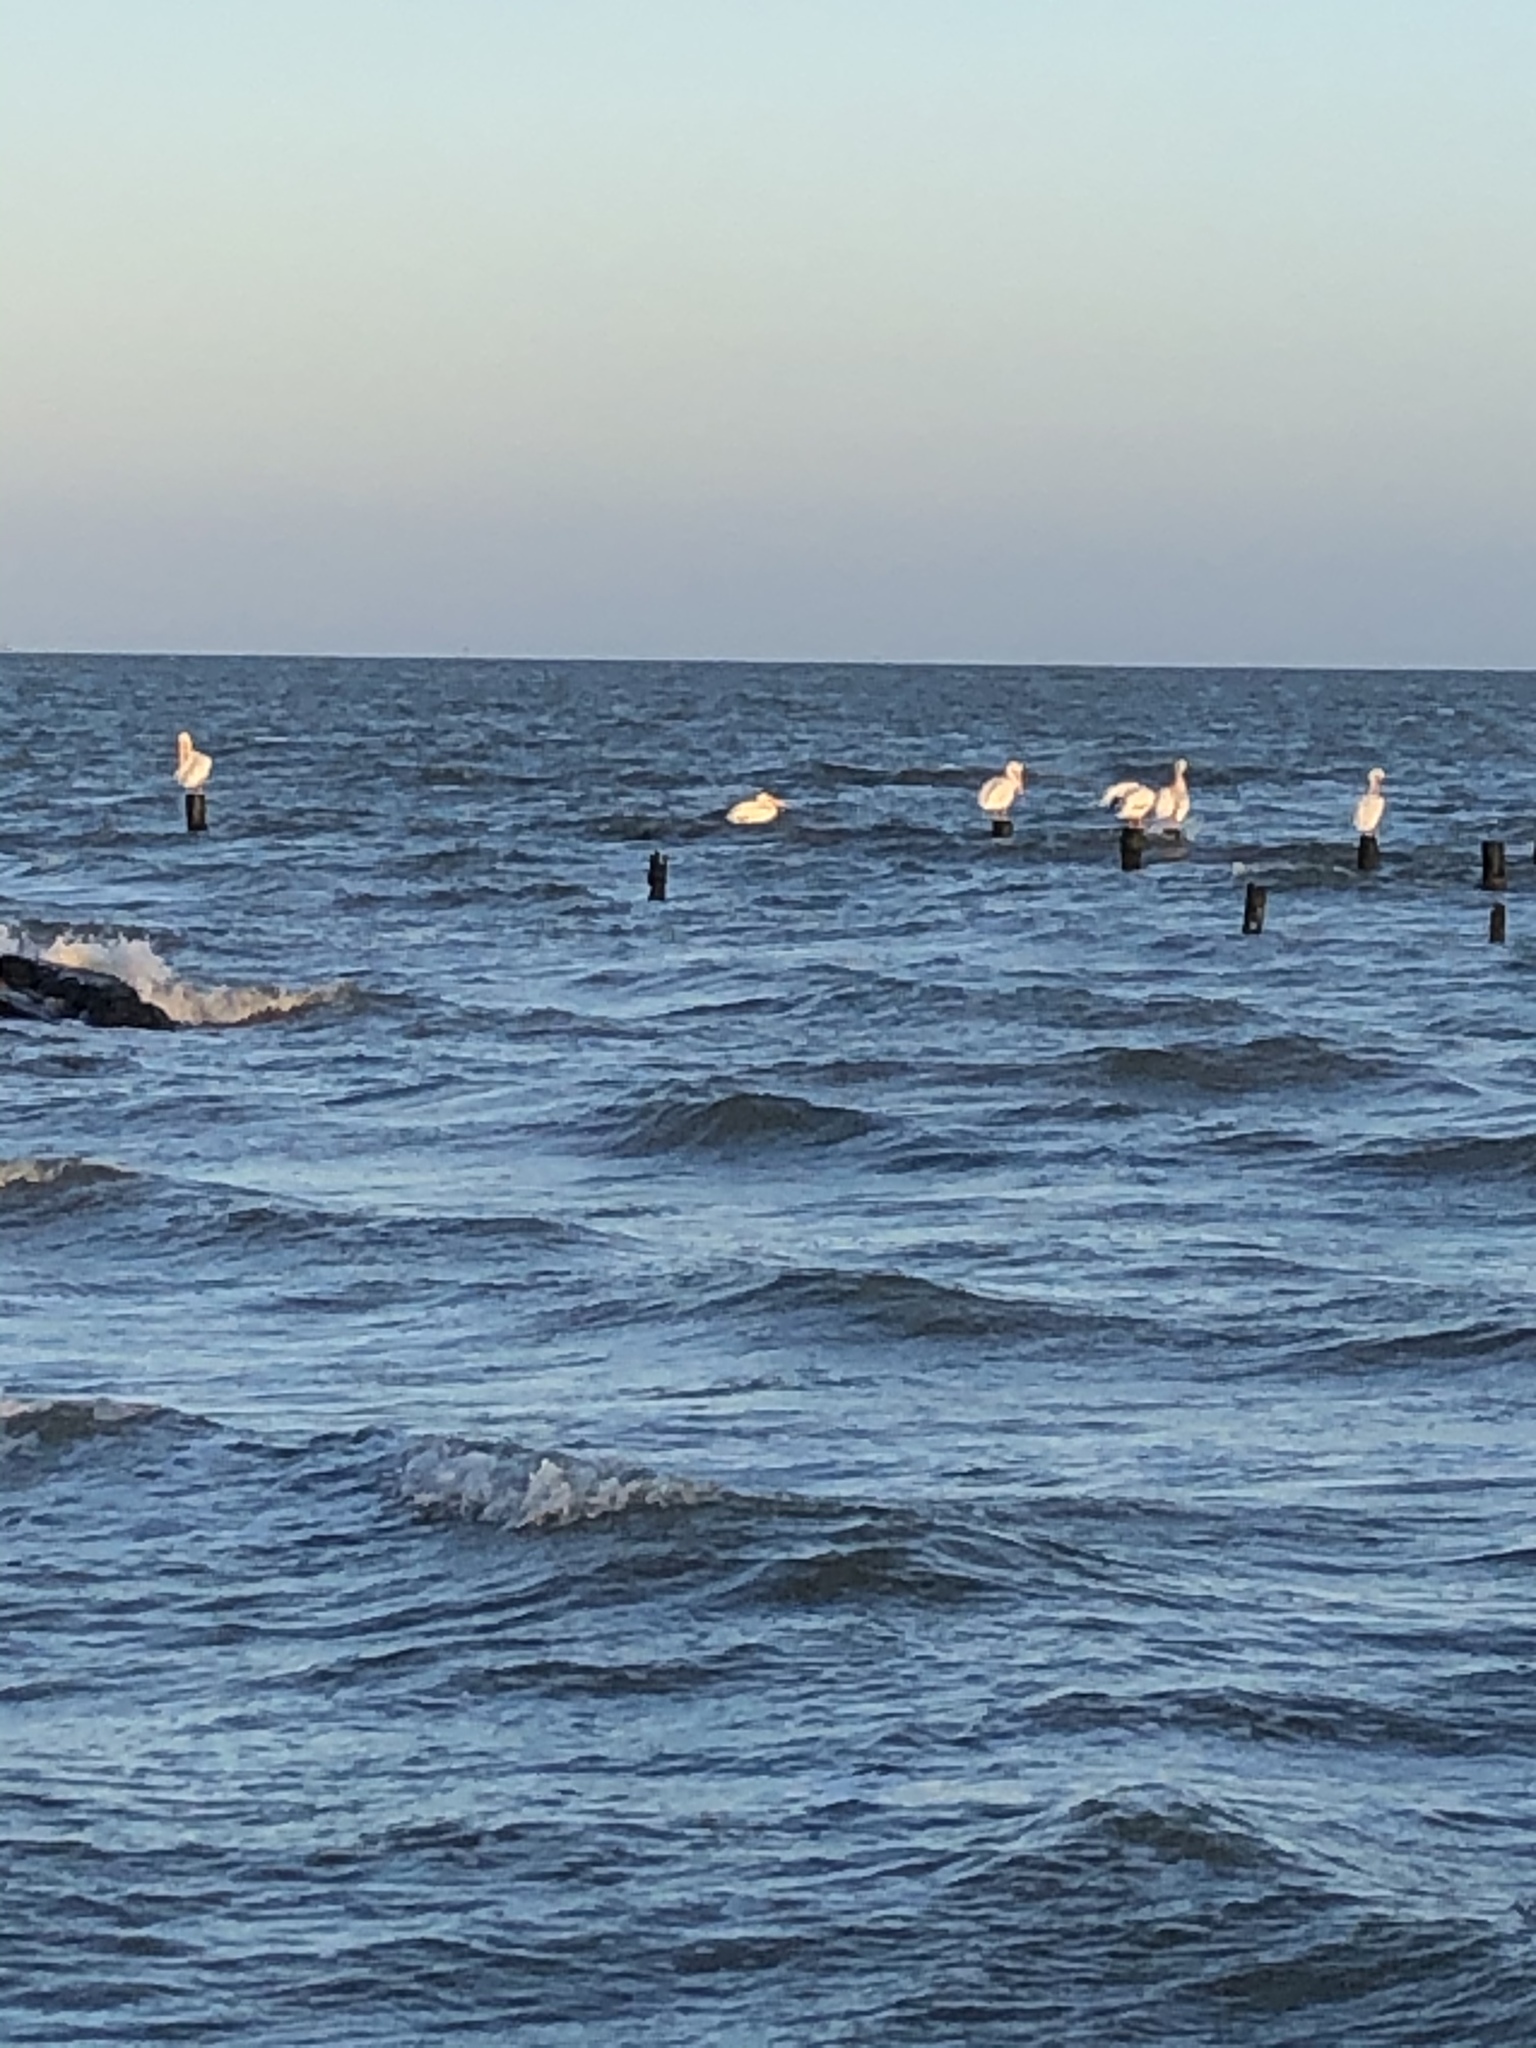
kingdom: Animalia
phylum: Chordata
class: Aves
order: Pelecaniformes
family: Pelecanidae
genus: Pelecanus
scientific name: Pelecanus erythrorhynchos
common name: American white pelican
